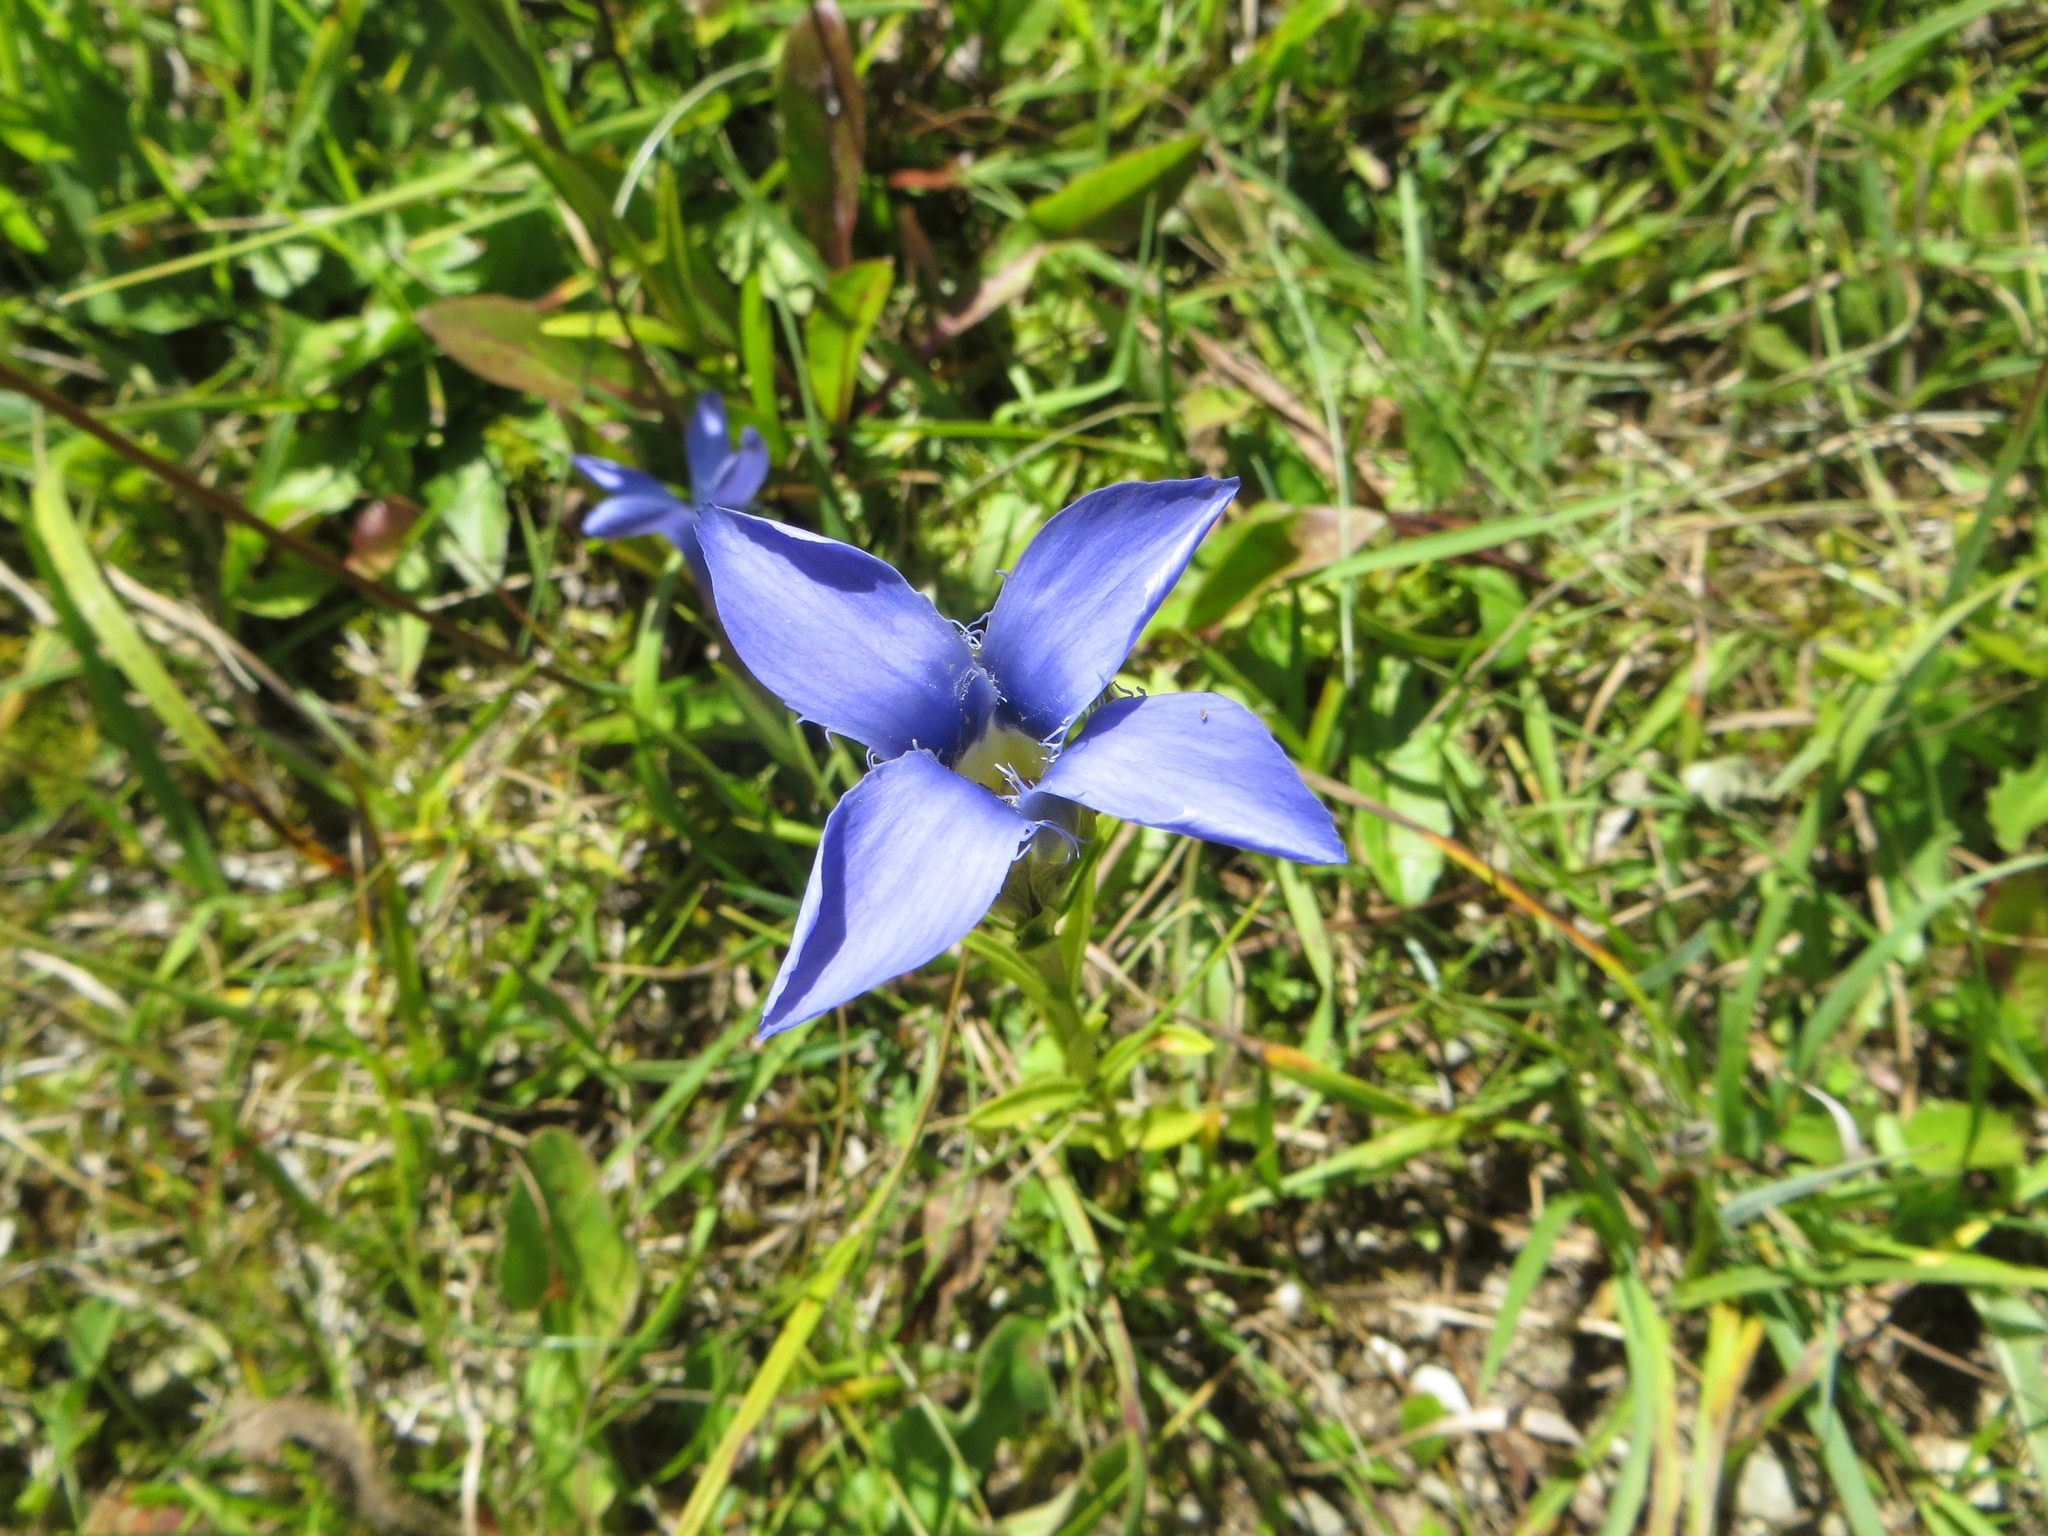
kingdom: Plantae
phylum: Tracheophyta
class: Magnoliopsida
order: Gentianales
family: Gentianaceae
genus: Gentianopsis
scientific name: Gentianopsis ciliata
